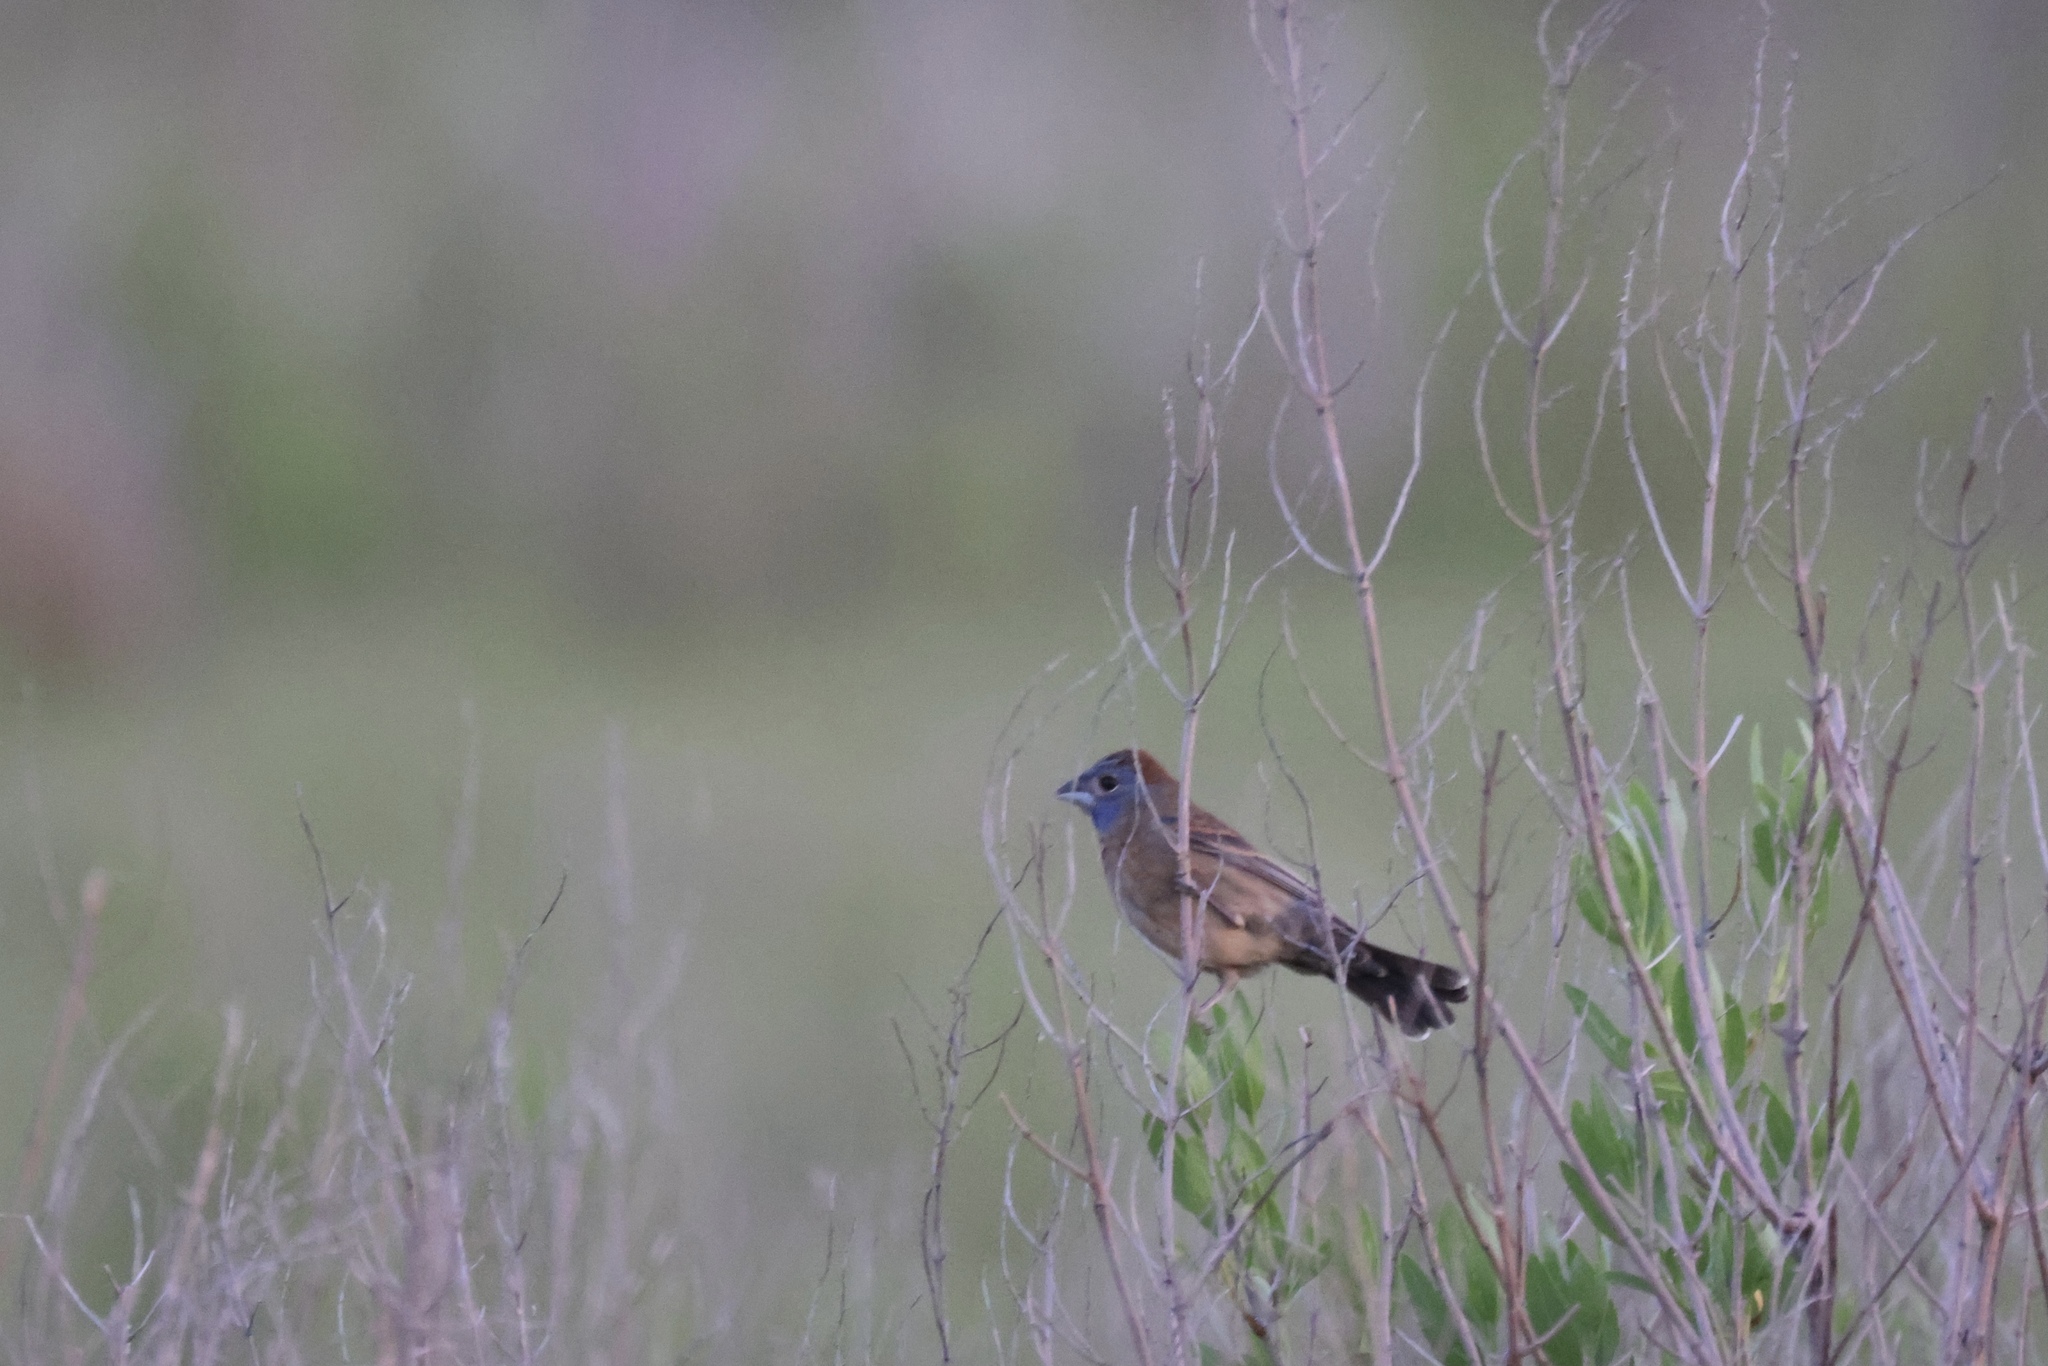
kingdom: Animalia
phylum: Chordata
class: Aves
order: Passeriformes
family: Cardinalidae
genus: Passerina
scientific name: Passerina caerulea
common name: Blue grosbeak
